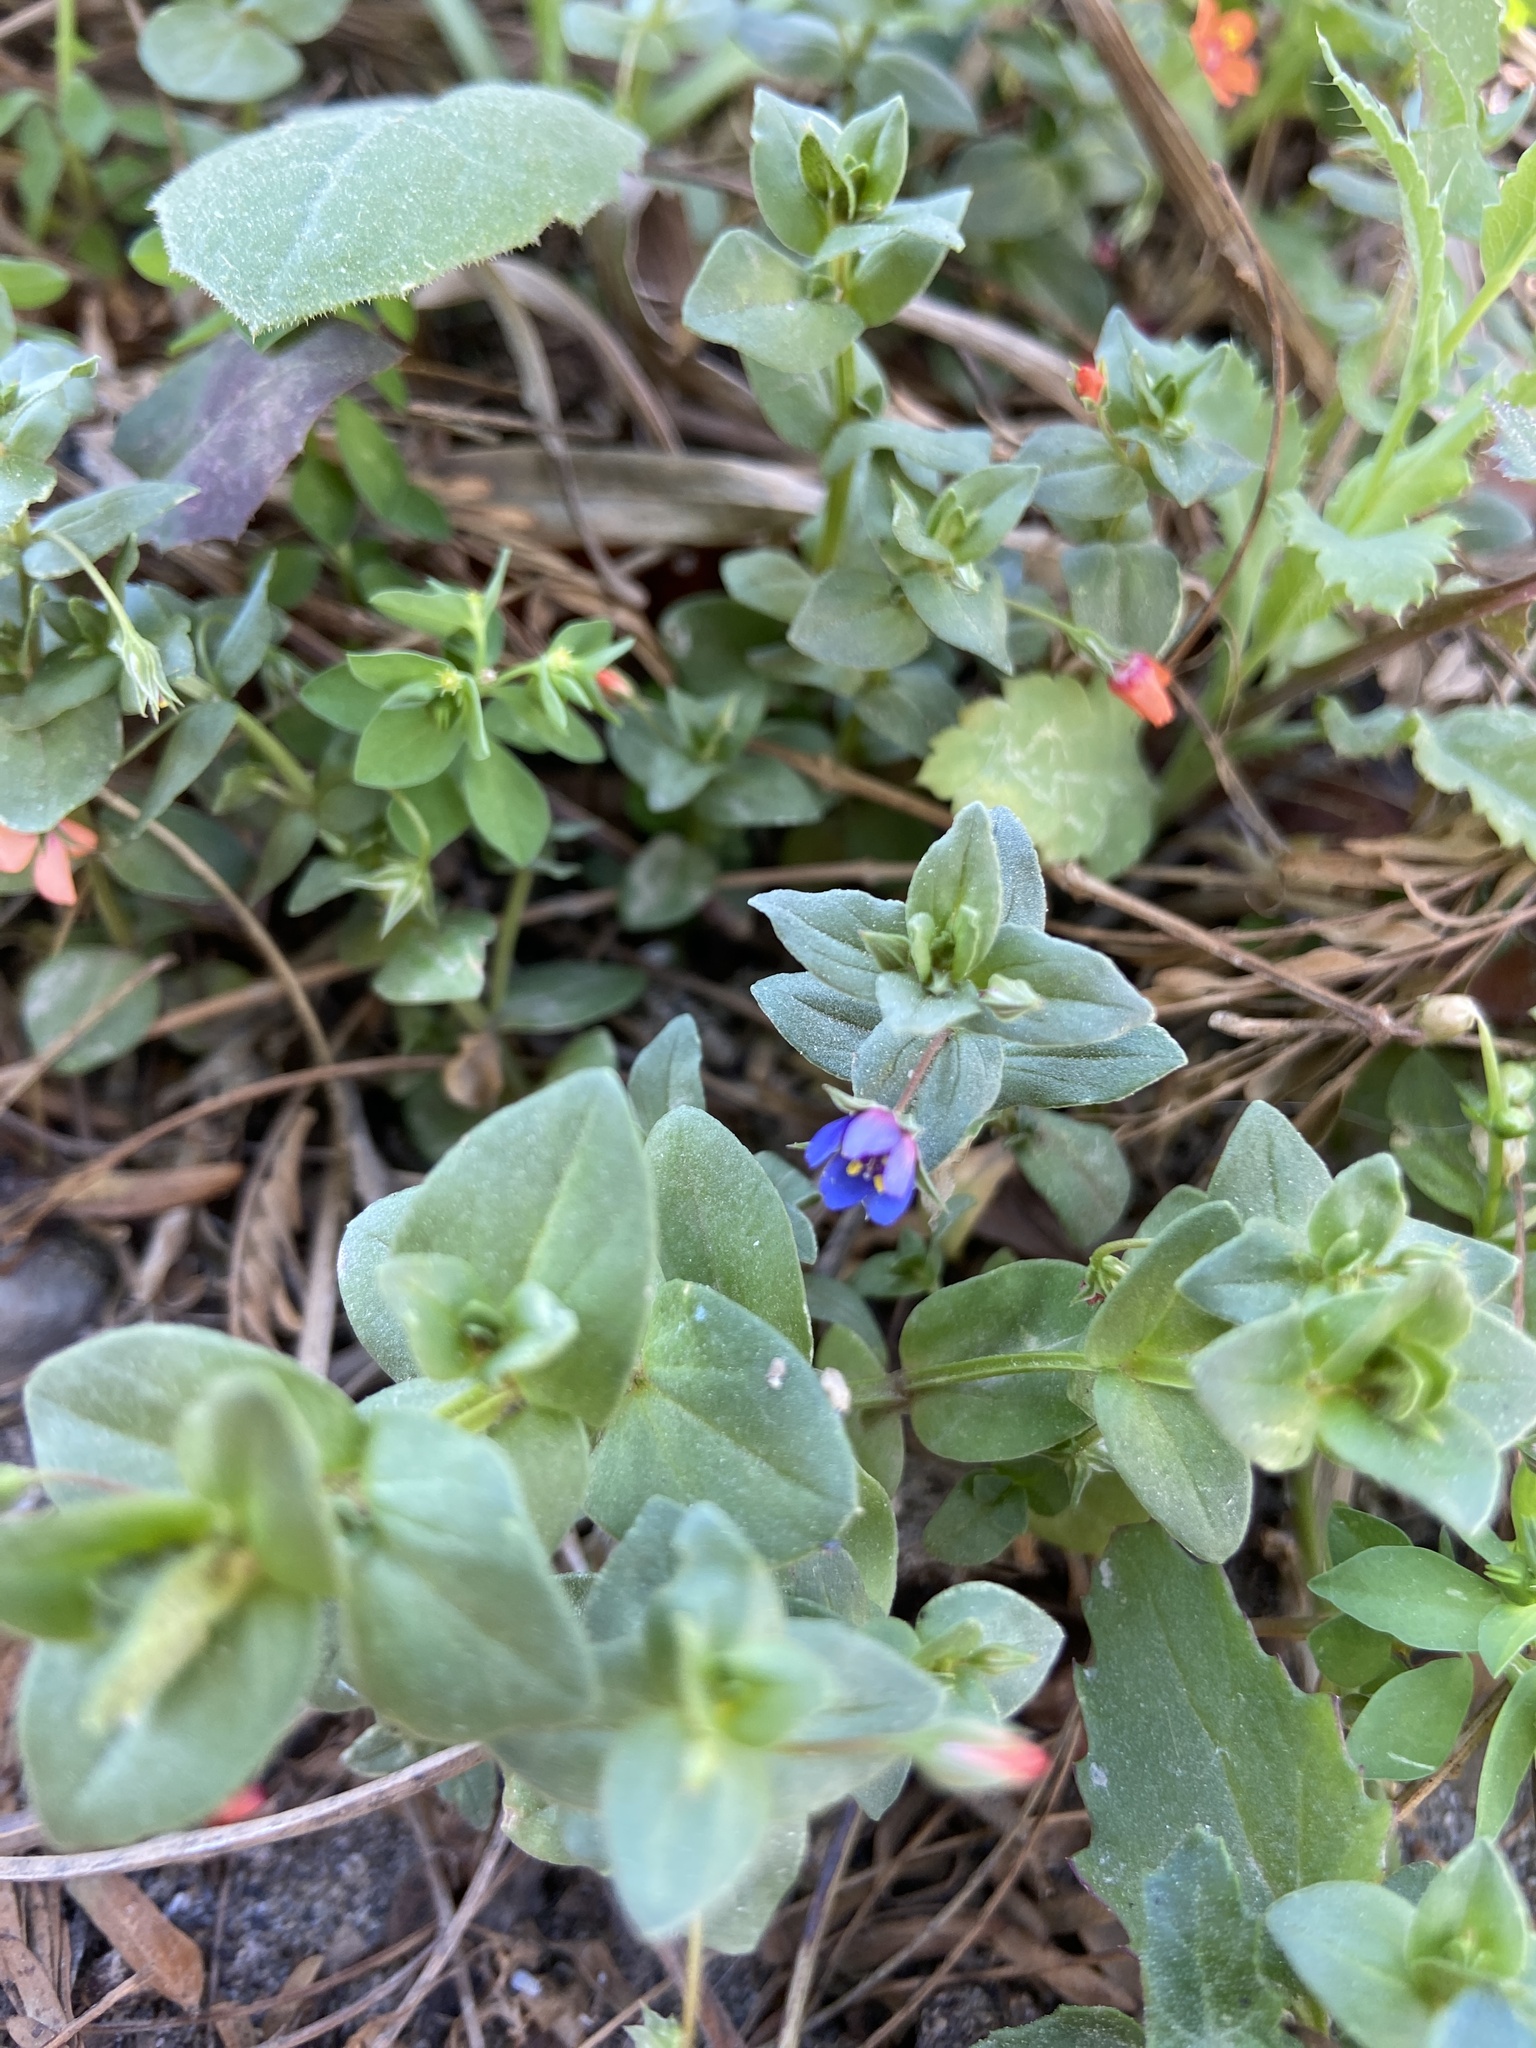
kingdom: Plantae
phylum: Tracheophyta
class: Magnoliopsida
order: Ericales
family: Primulaceae
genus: Lysimachia
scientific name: Lysimachia loeflingii
